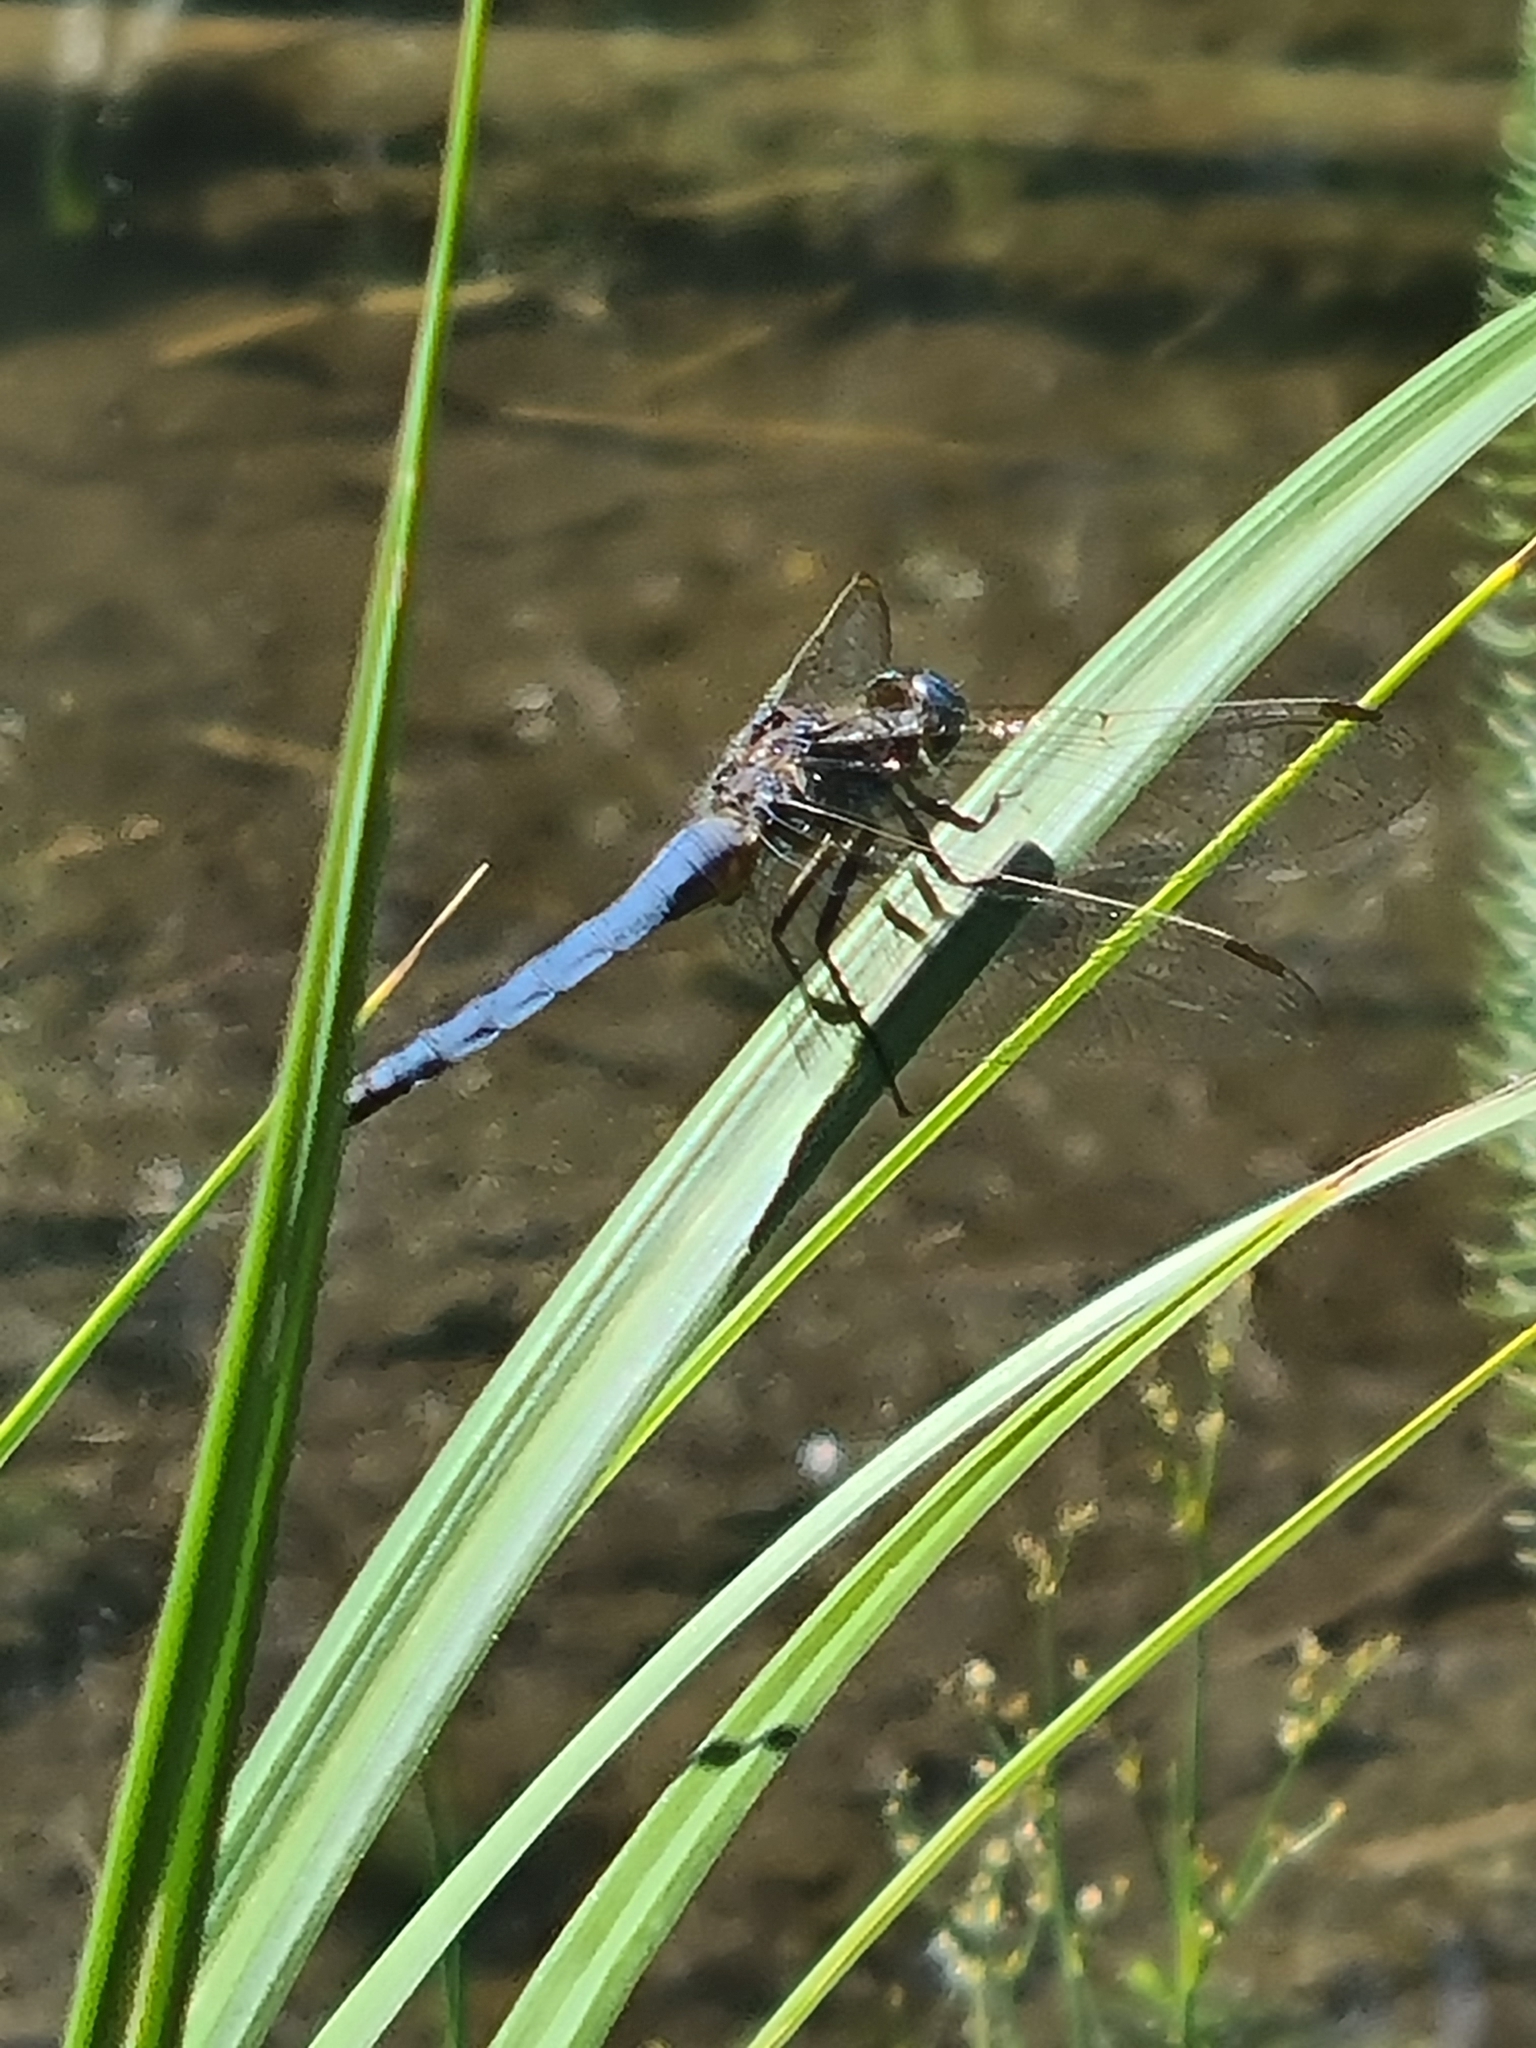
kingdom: Animalia
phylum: Arthropoda
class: Insecta
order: Odonata
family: Libellulidae
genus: Orthetrum
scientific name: Orthetrum coerulescens
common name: Keeled skimmer
